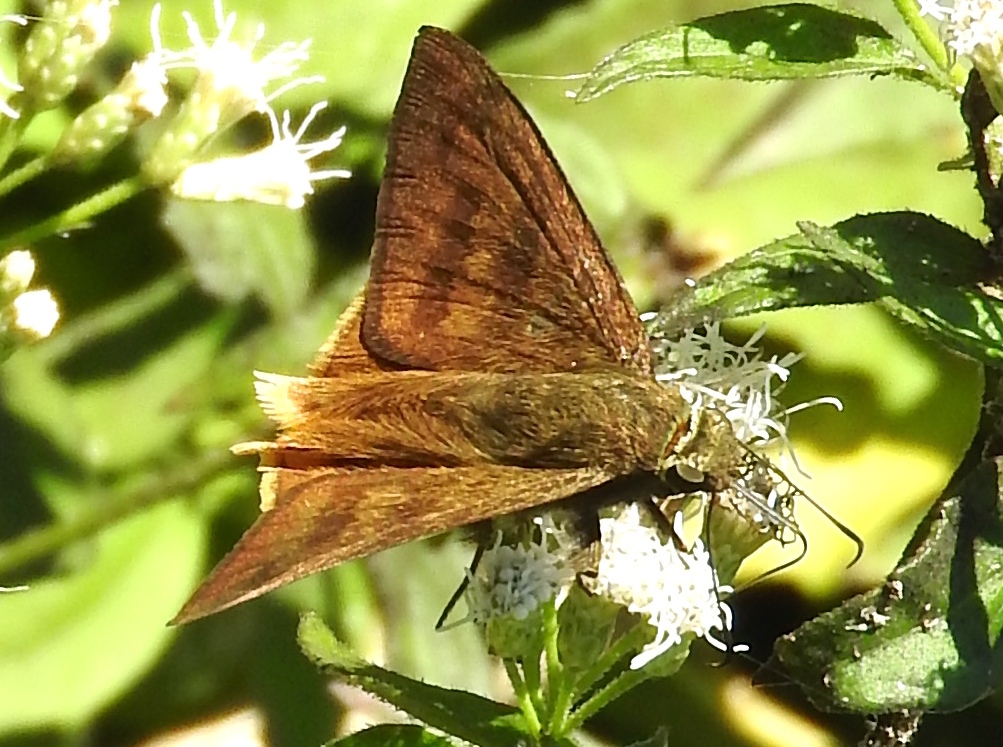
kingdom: Animalia
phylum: Arthropoda
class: Insecta
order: Lepidoptera
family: Hesperiidae
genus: Astraptes
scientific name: Astraptes anaphus
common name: Yellow-tipped flasher
